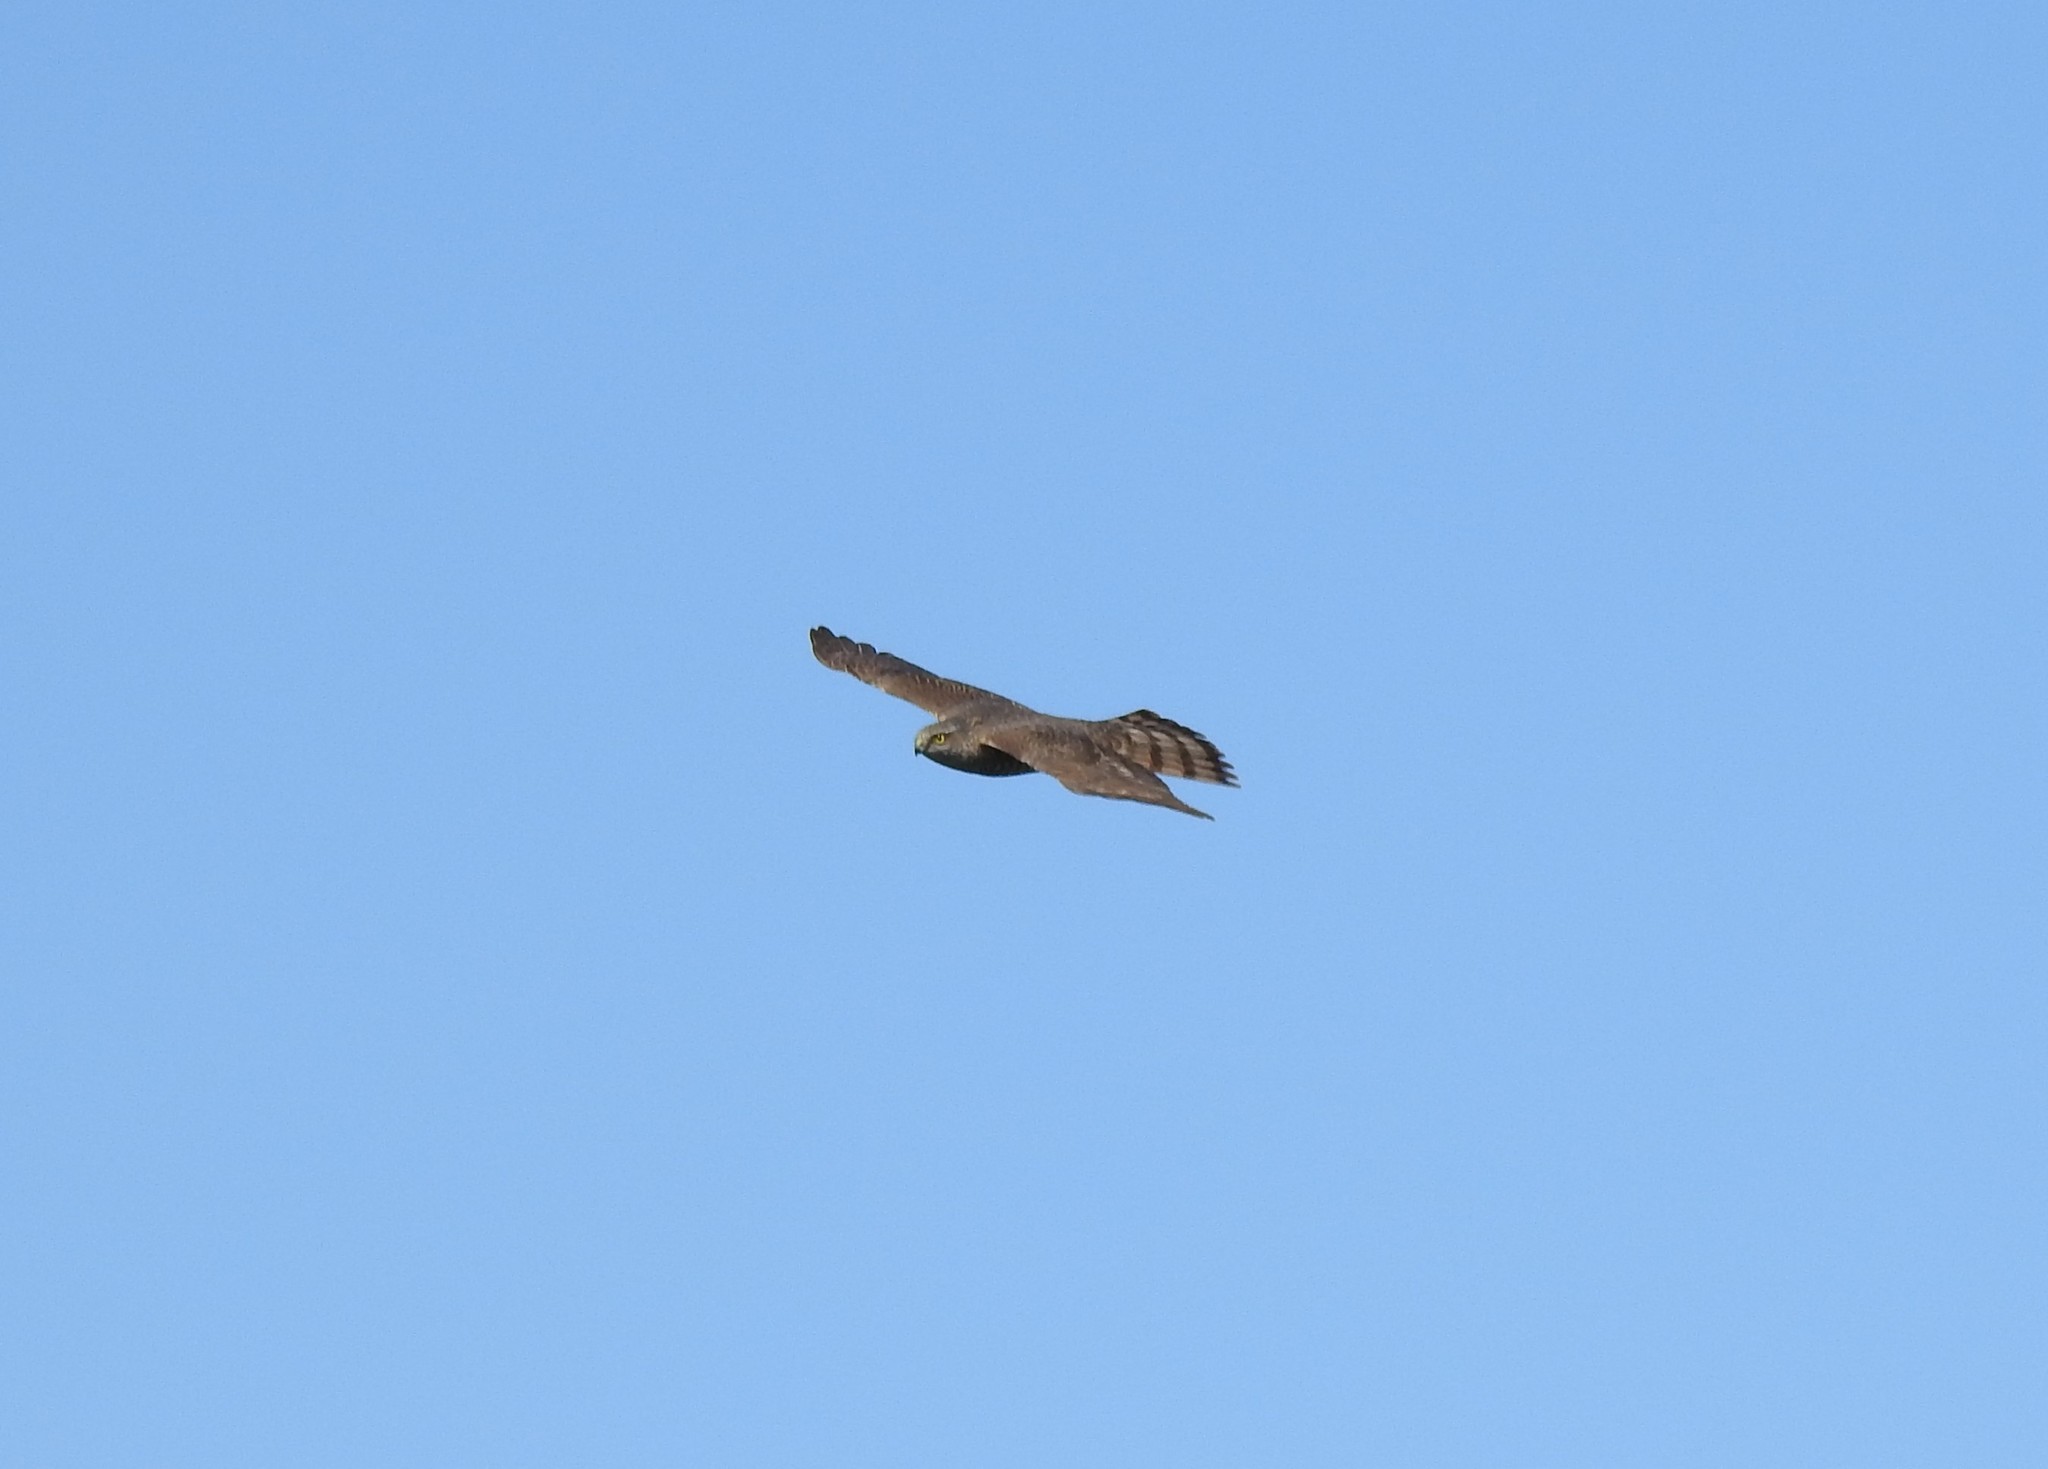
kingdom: Animalia
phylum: Chordata
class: Aves
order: Accipitriformes
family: Accipitridae
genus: Accipiter
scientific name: Accipiter nisus
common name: Eurasian sparrowhawk
